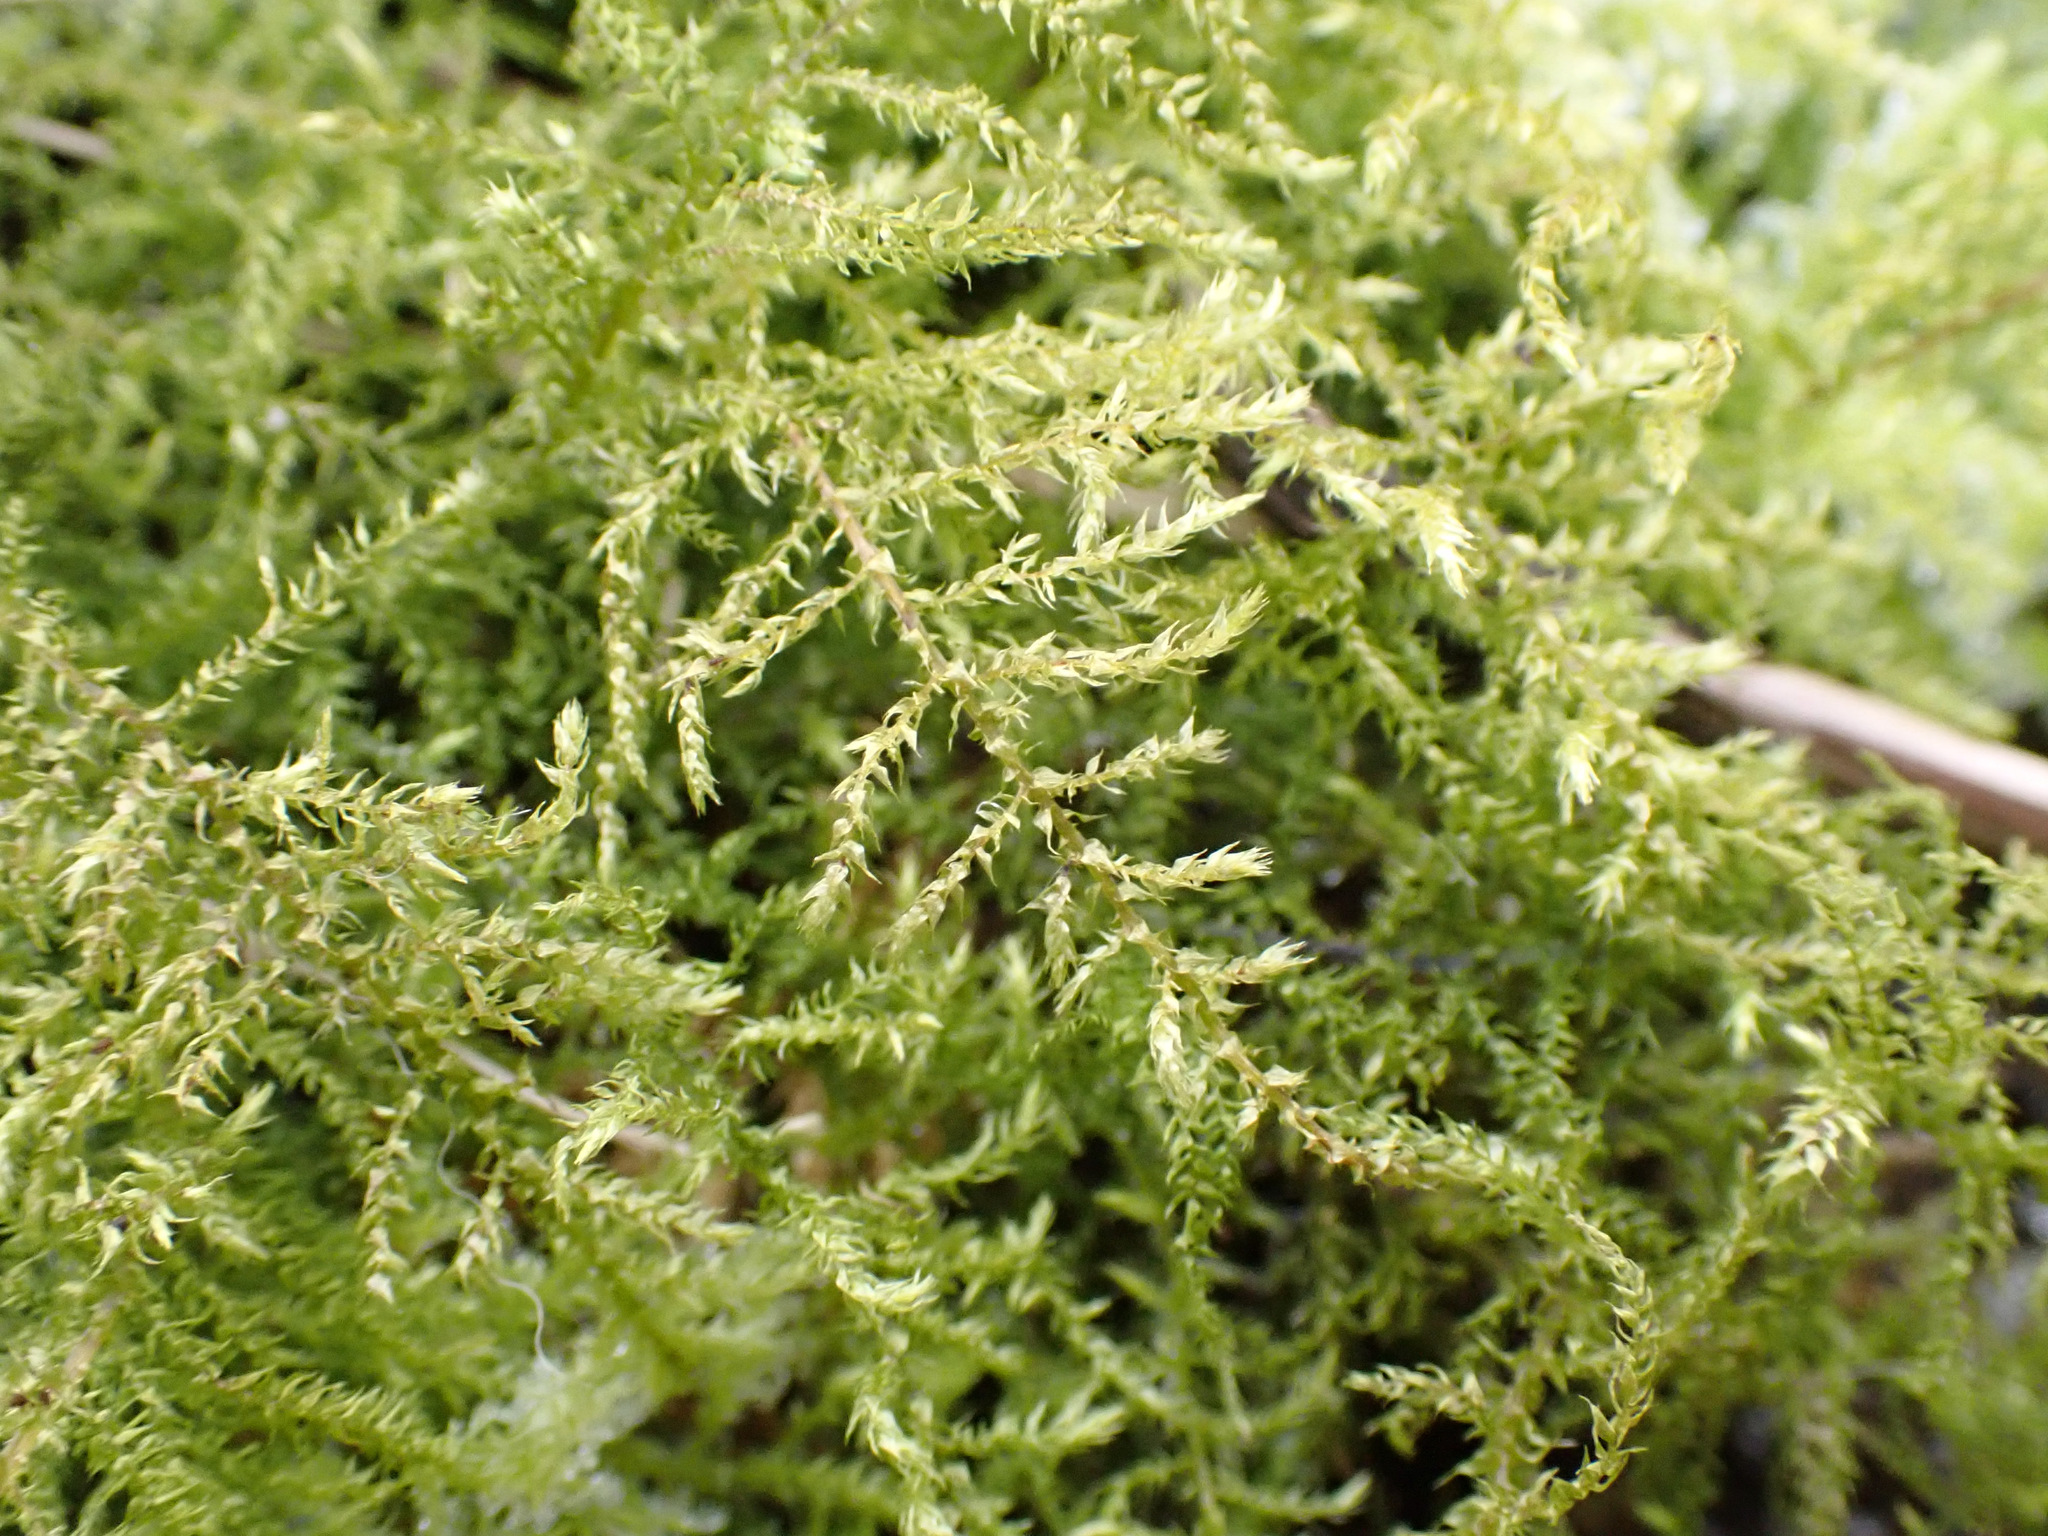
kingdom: Plantae
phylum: Bryophyta
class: Bryopsida
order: Hypnales
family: Brachytheciaceae
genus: Kindbergia
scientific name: Kindbergia praelonga
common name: Slender beaked moss
